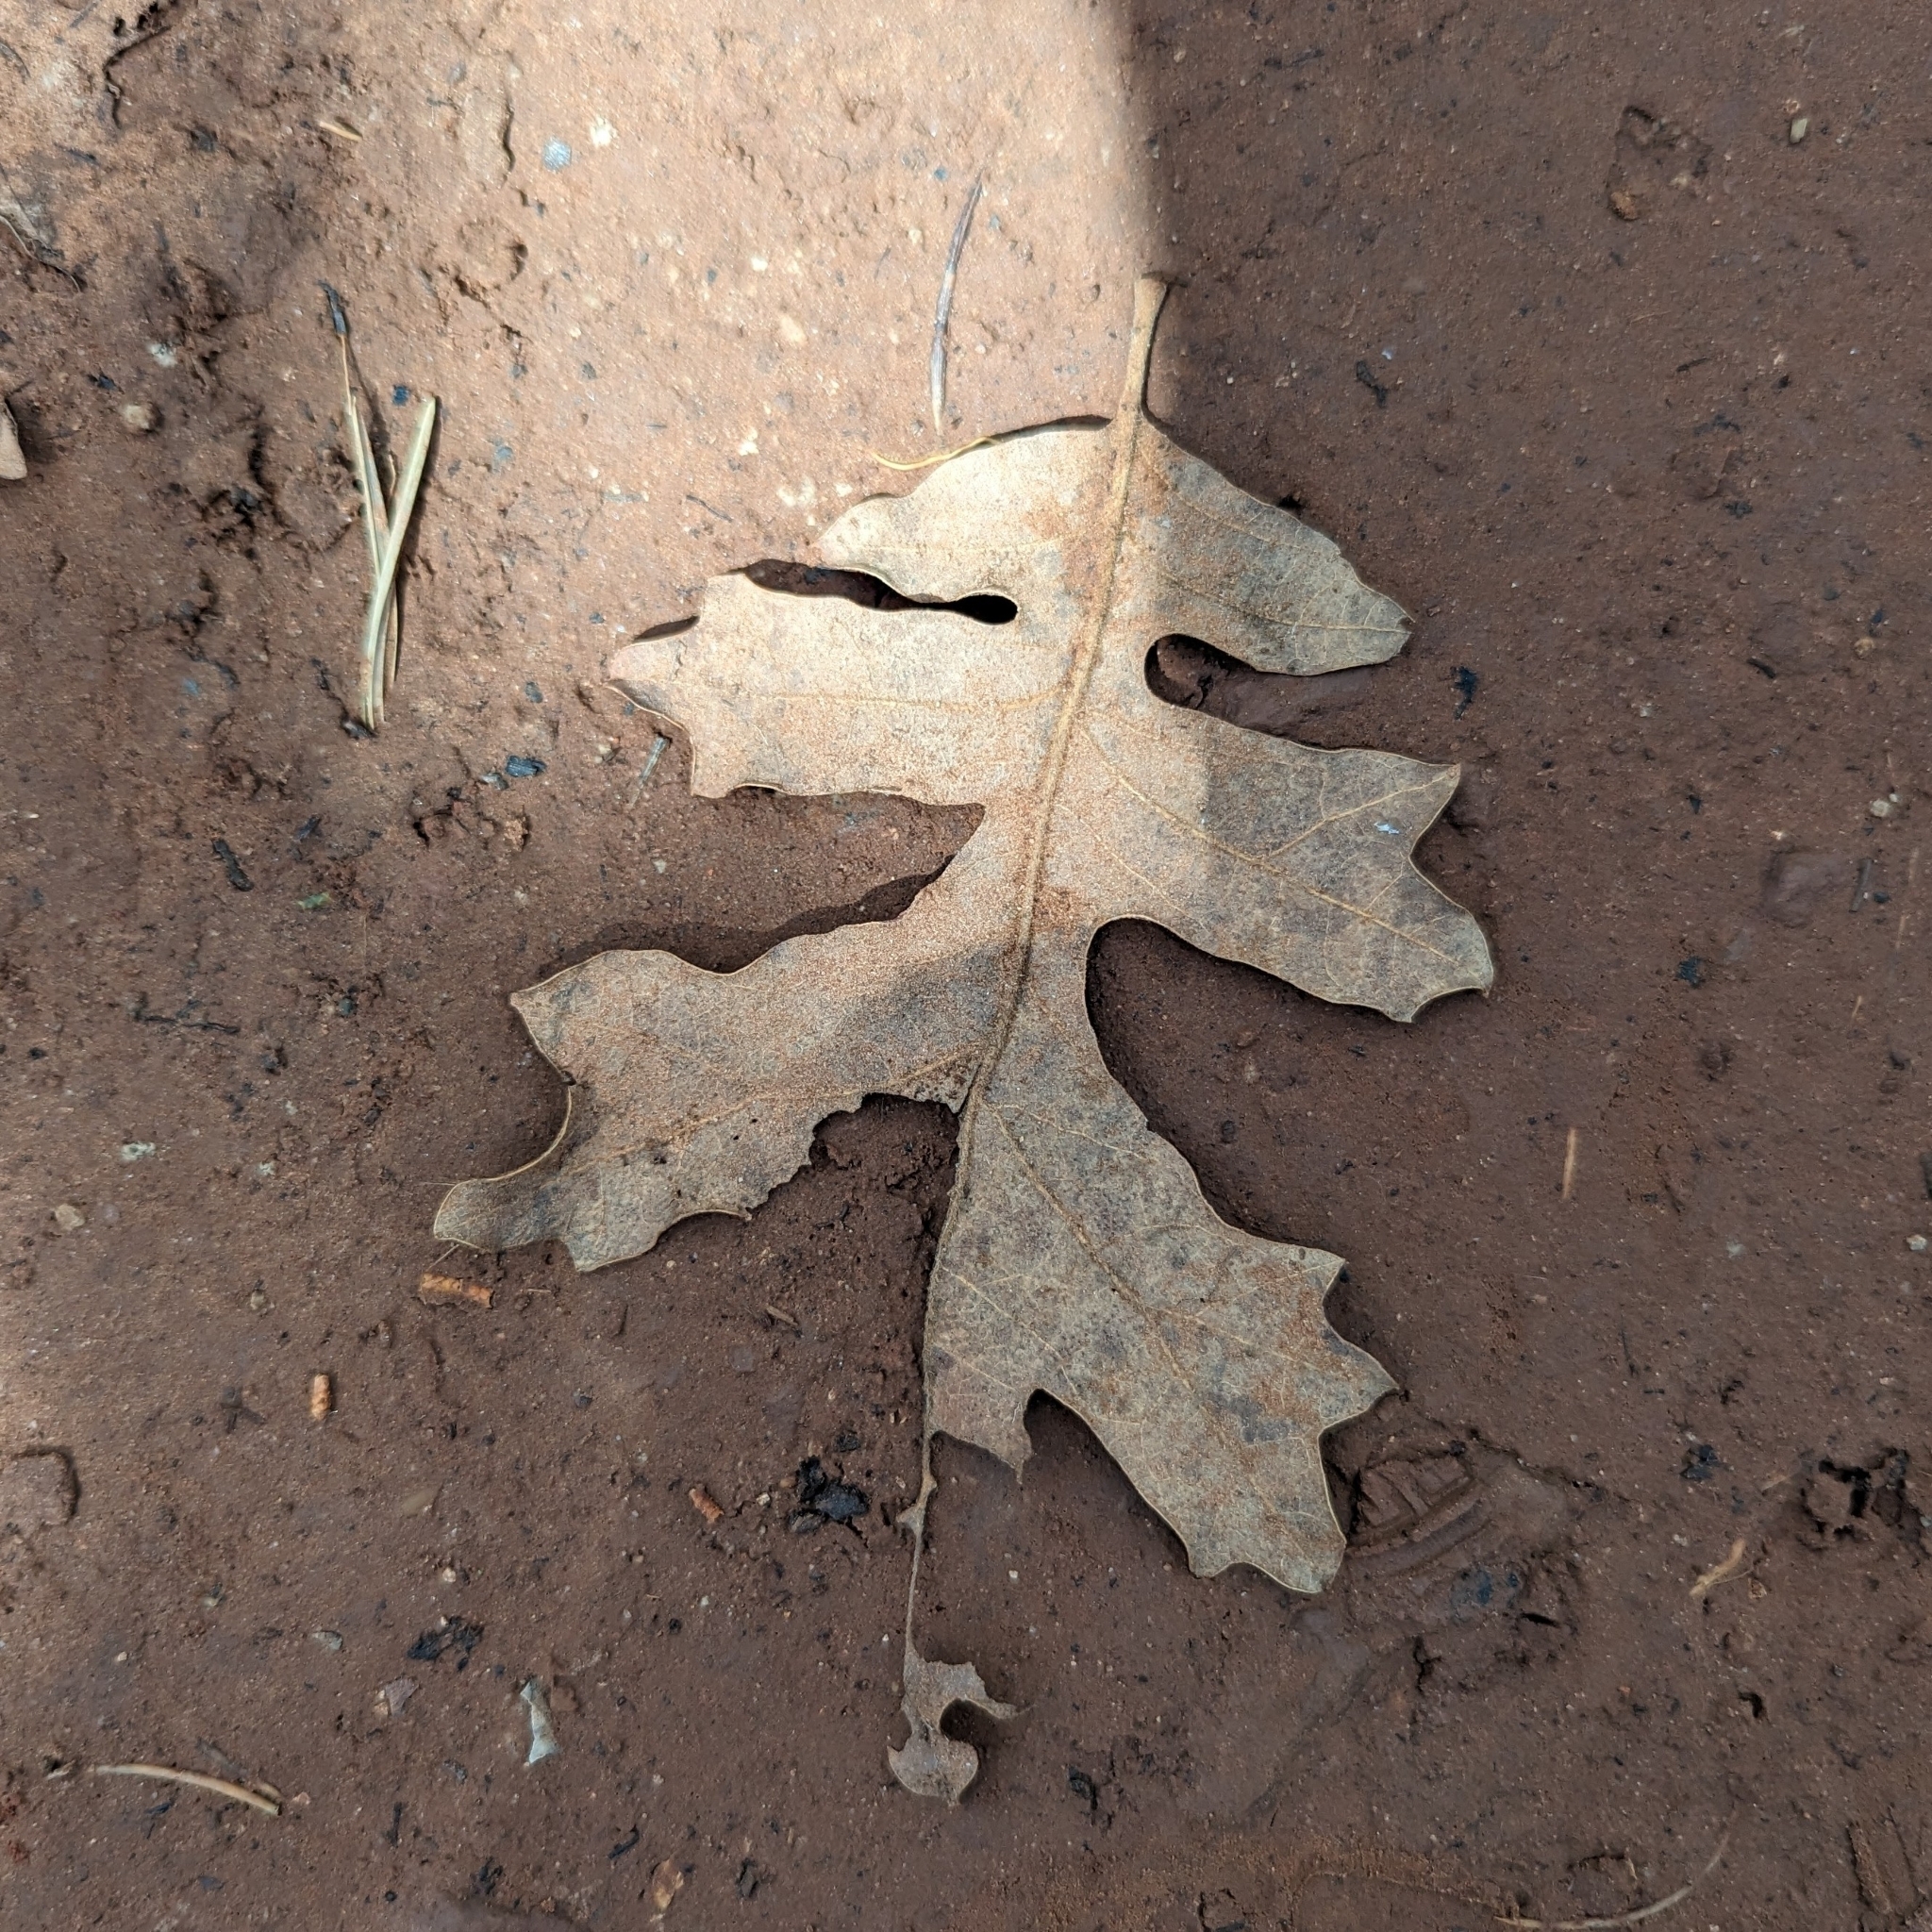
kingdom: Plantae
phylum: Tracheophyta
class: Magnoliopsida
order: Fagales
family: Fagaceae
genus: Quercus
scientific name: Quercus gambelii
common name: Gambel oak
